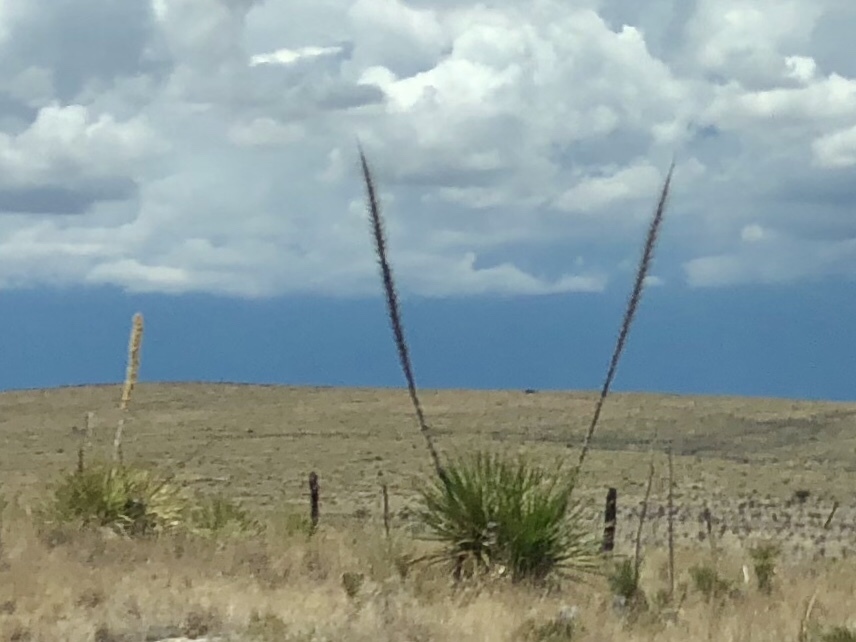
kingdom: Plantae
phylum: Tracheophyta
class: Liliopsida
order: Asparagales
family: Asparagaceae
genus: Dasylirion
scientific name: Dasylirion
